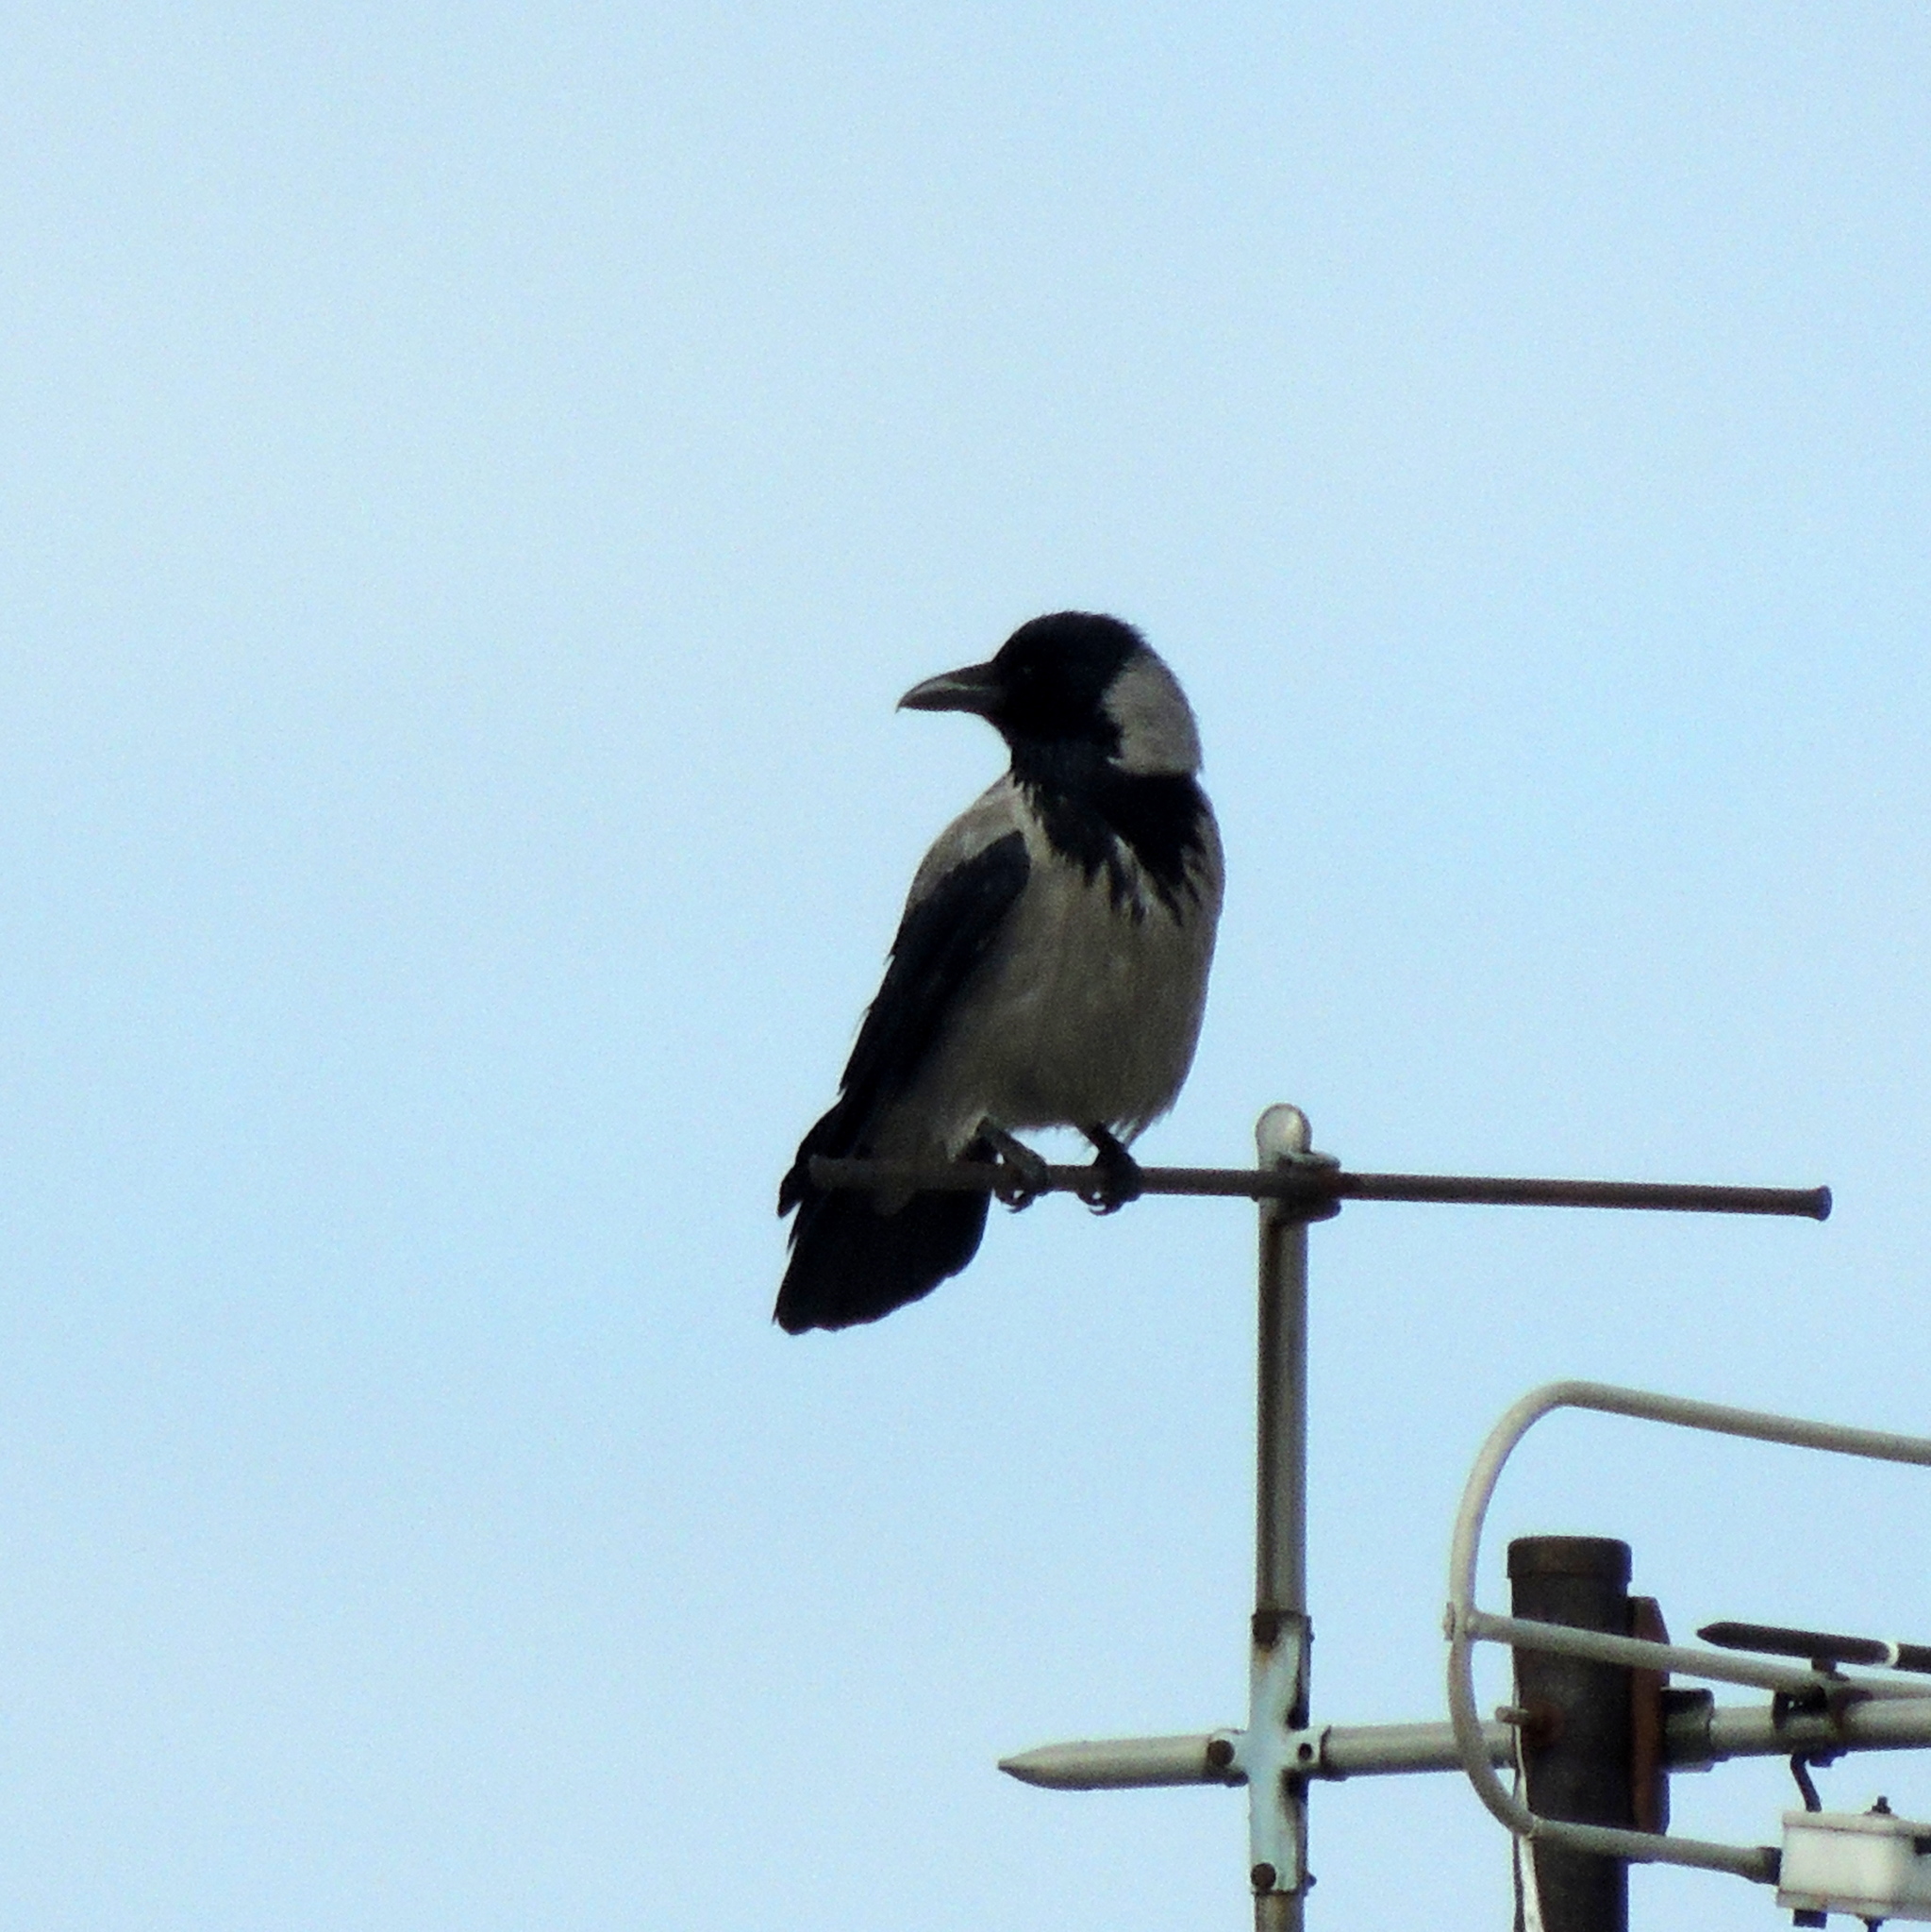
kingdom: Animalia
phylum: Chordata
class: Aves
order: Passeriformes
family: Corvidae
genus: Corvus
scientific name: Corvus cornix
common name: Hooded crow
